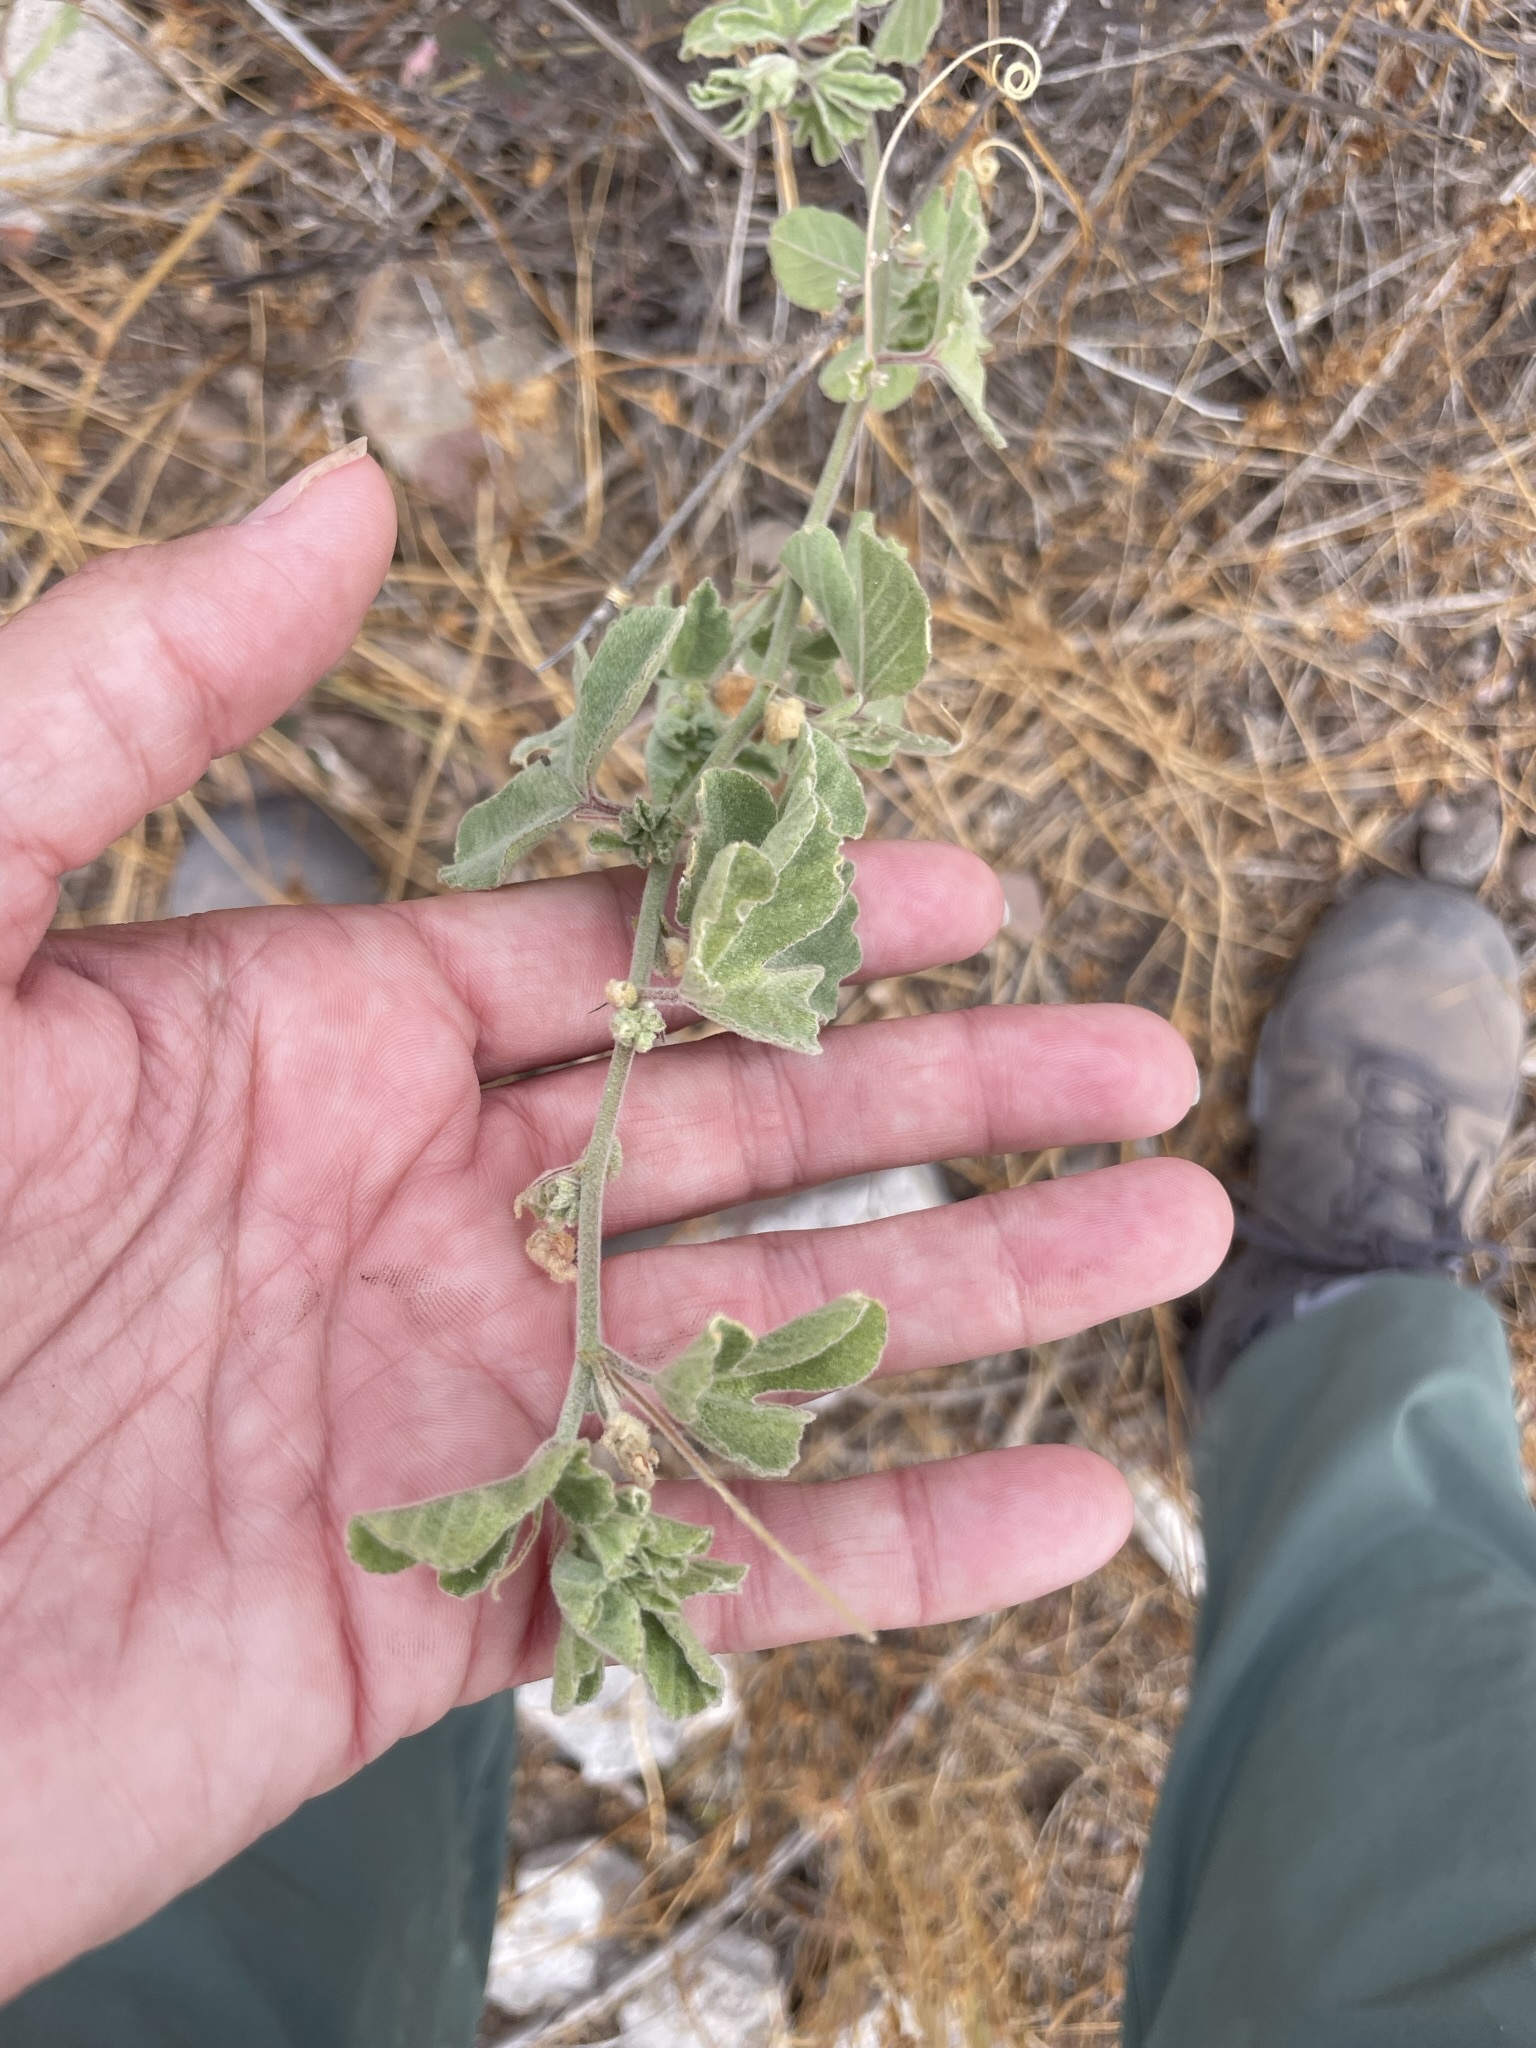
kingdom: Plantae
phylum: Tracheophyta
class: Magnoliopsida
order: Malpighiales
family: Passifloraceae
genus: Passiflora
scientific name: Passiflora arida
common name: Desert passionflower
